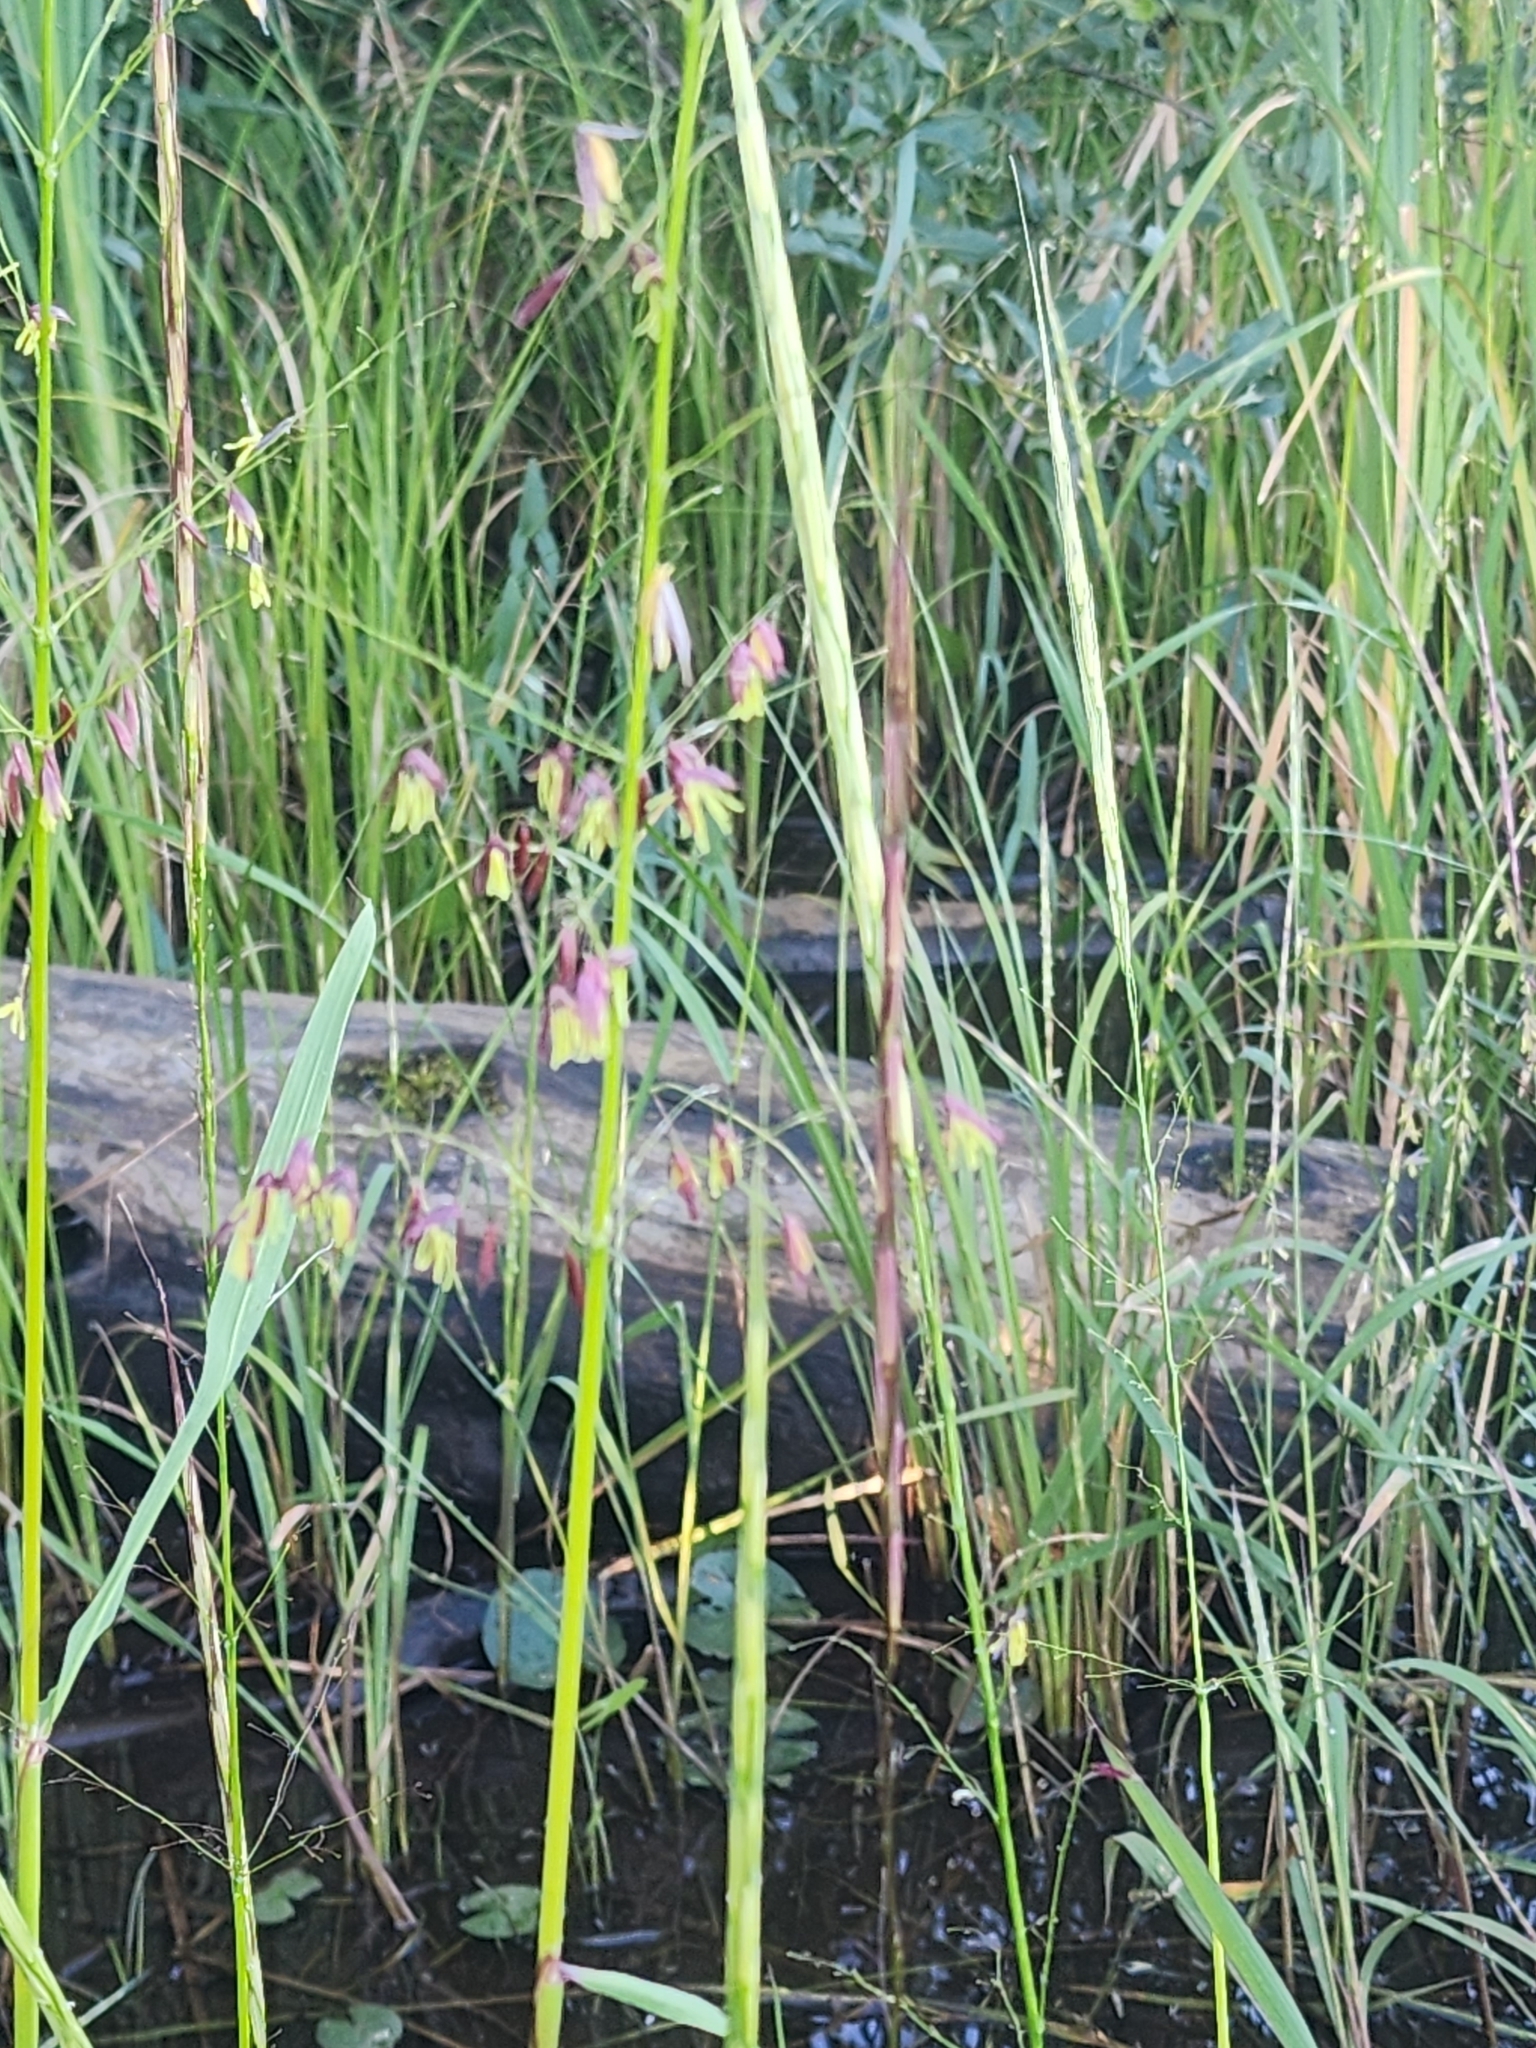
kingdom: Plantae
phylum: Tracheophyta
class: Liliopsida
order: Poales
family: Poaceae
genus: Zizania
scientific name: Zizania palustris
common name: Northern wild rice
